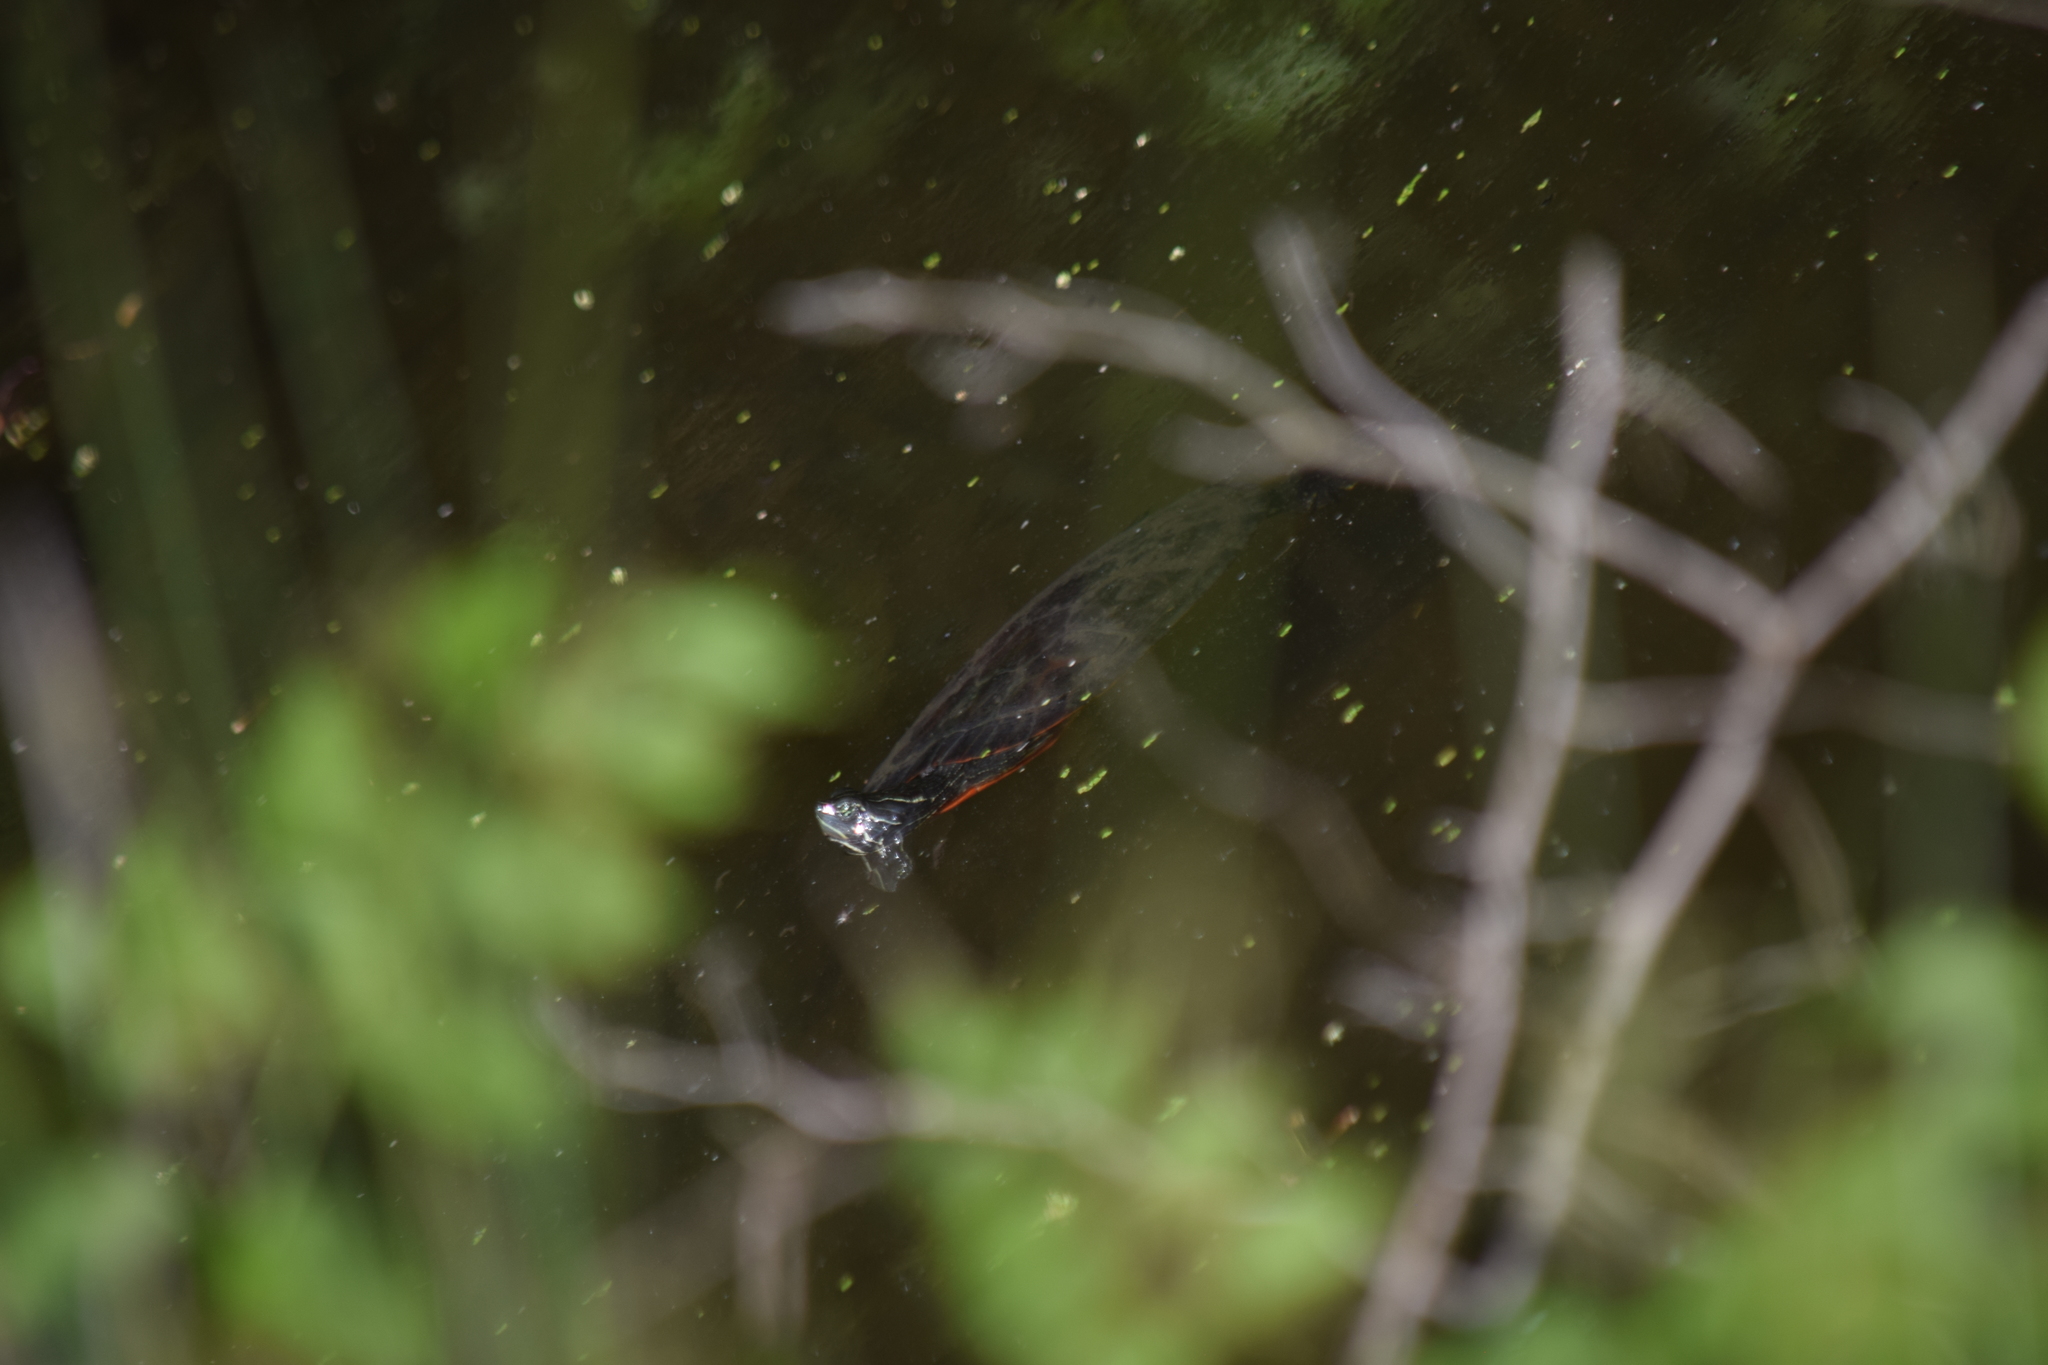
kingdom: Animalia
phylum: Chordata
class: Testudines
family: Emydidae
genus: Chrysemys
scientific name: Chrysemys picta
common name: Painted turtle
